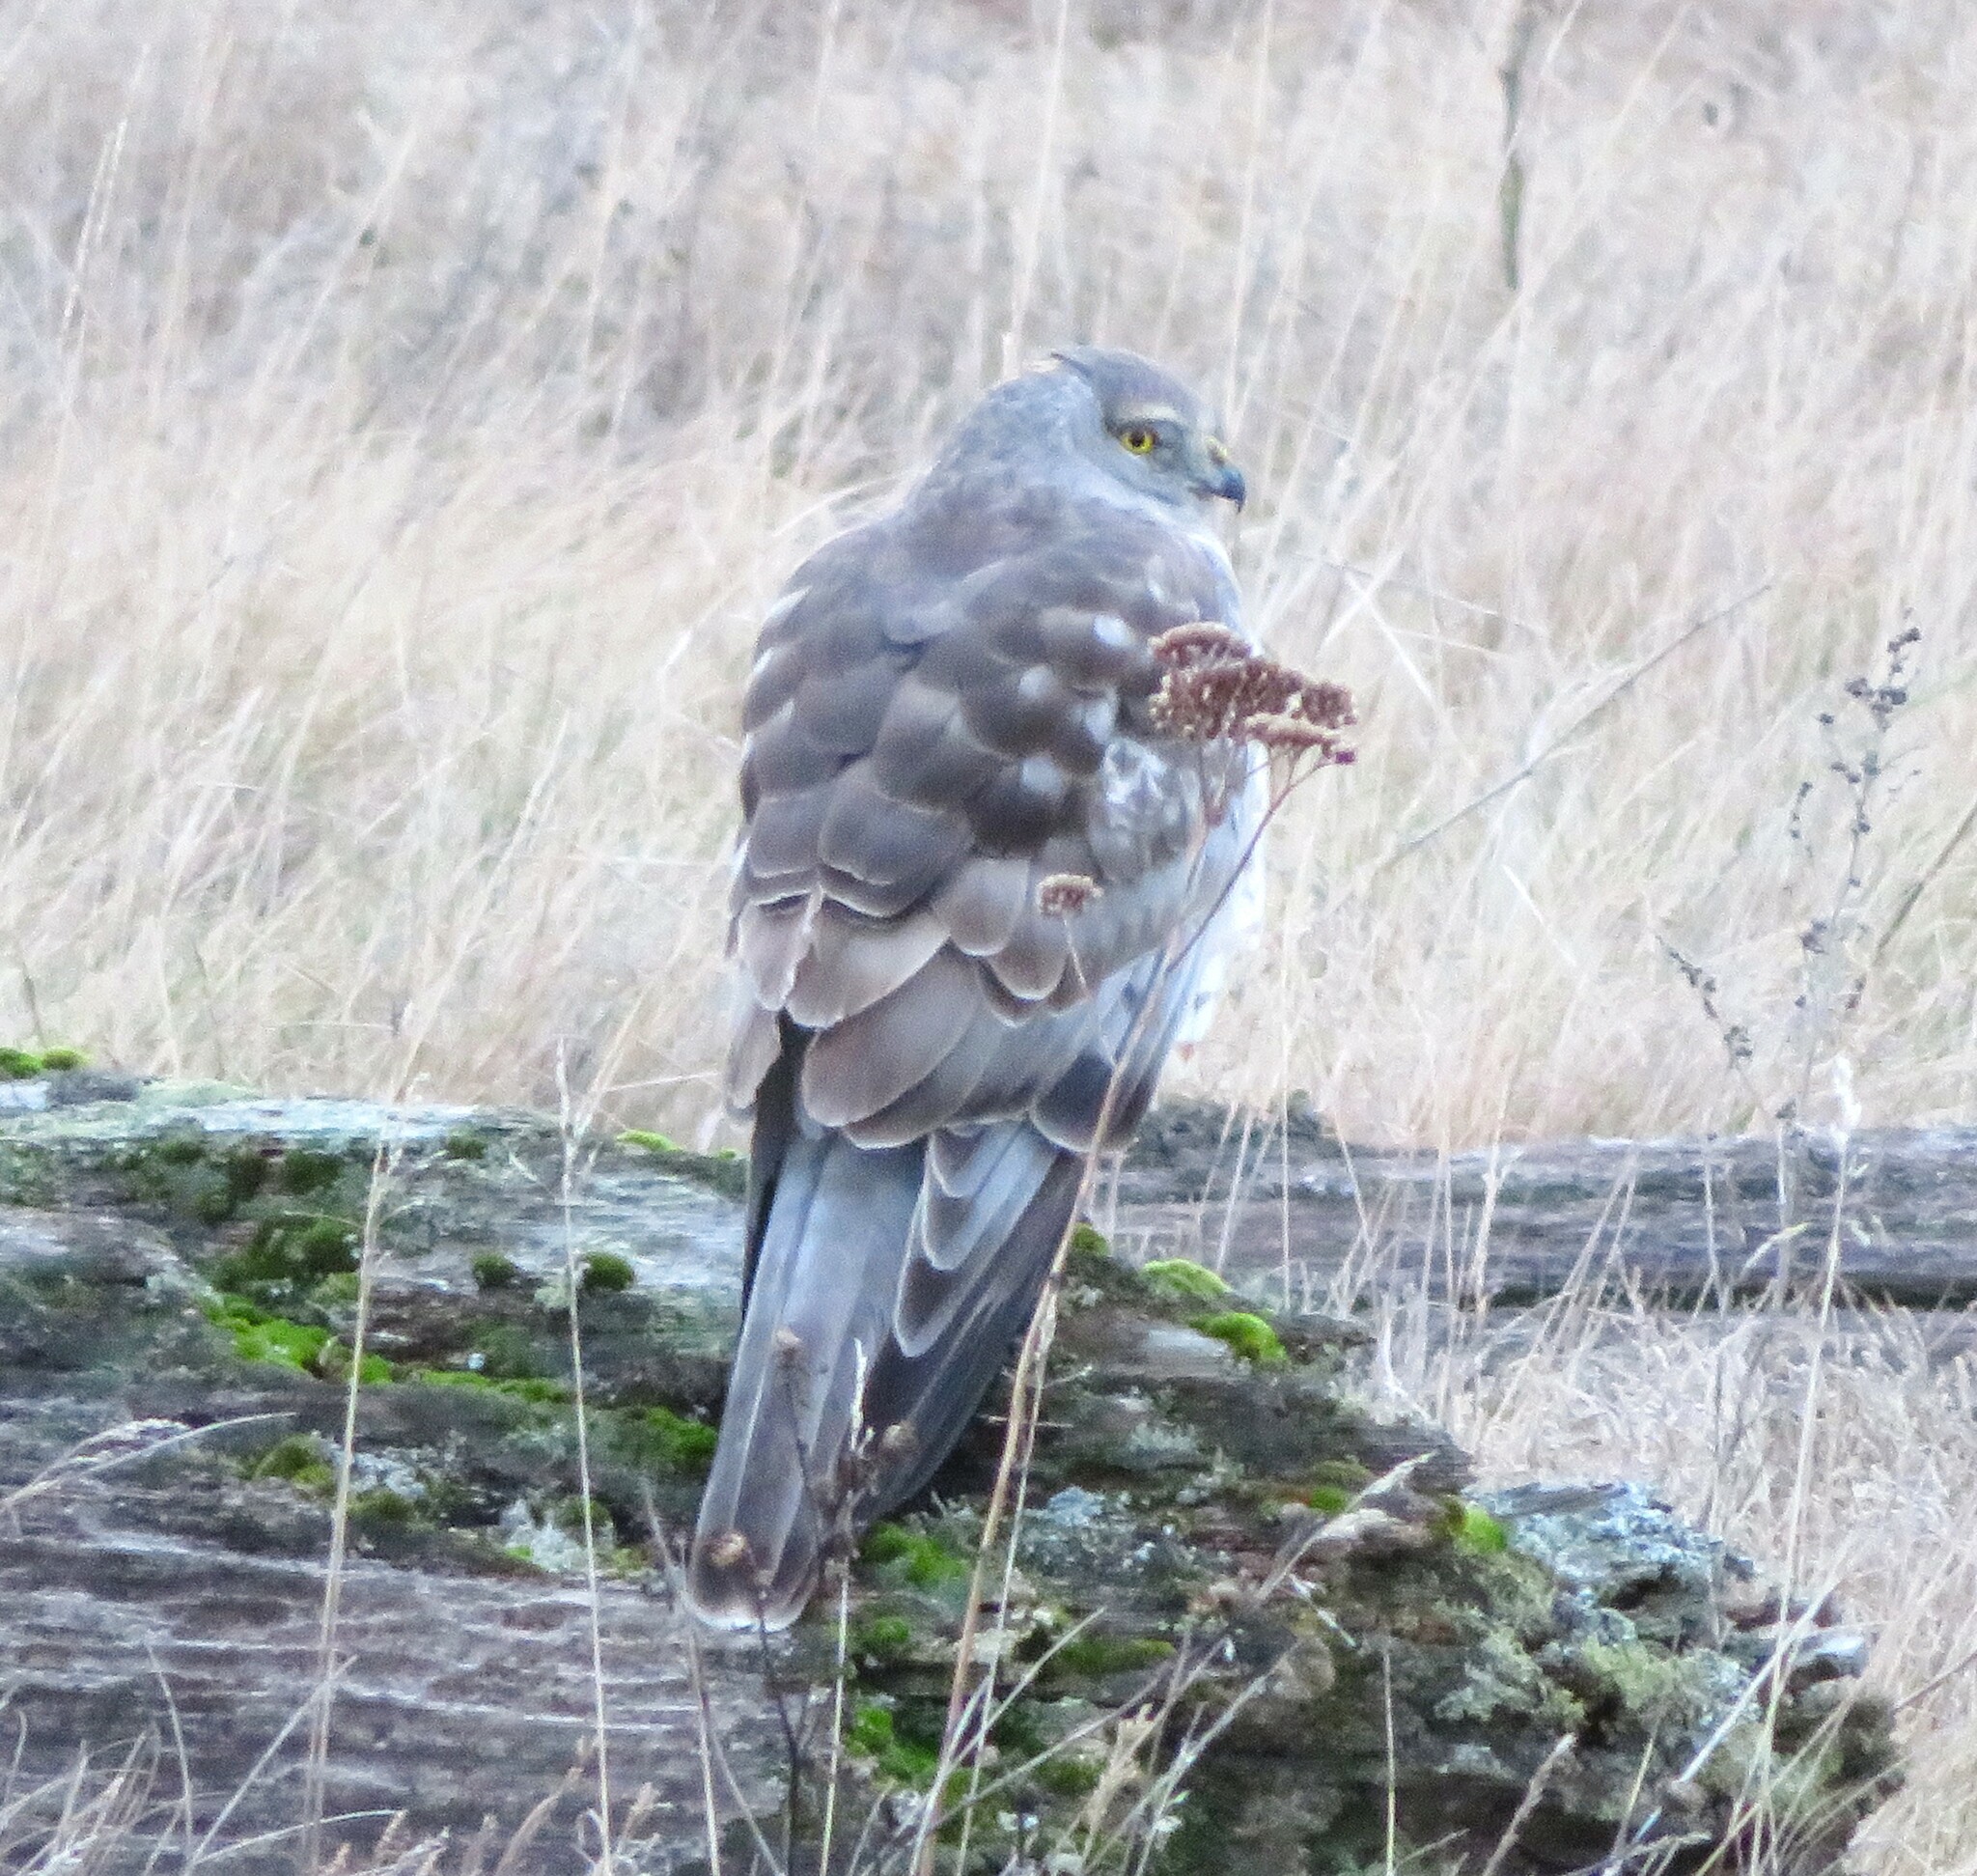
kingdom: Animalia
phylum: Chordata
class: Aves
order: Accipitriformes
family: Accipitridae
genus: Circus
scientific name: Circus cyaneus
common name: Hen harrier
